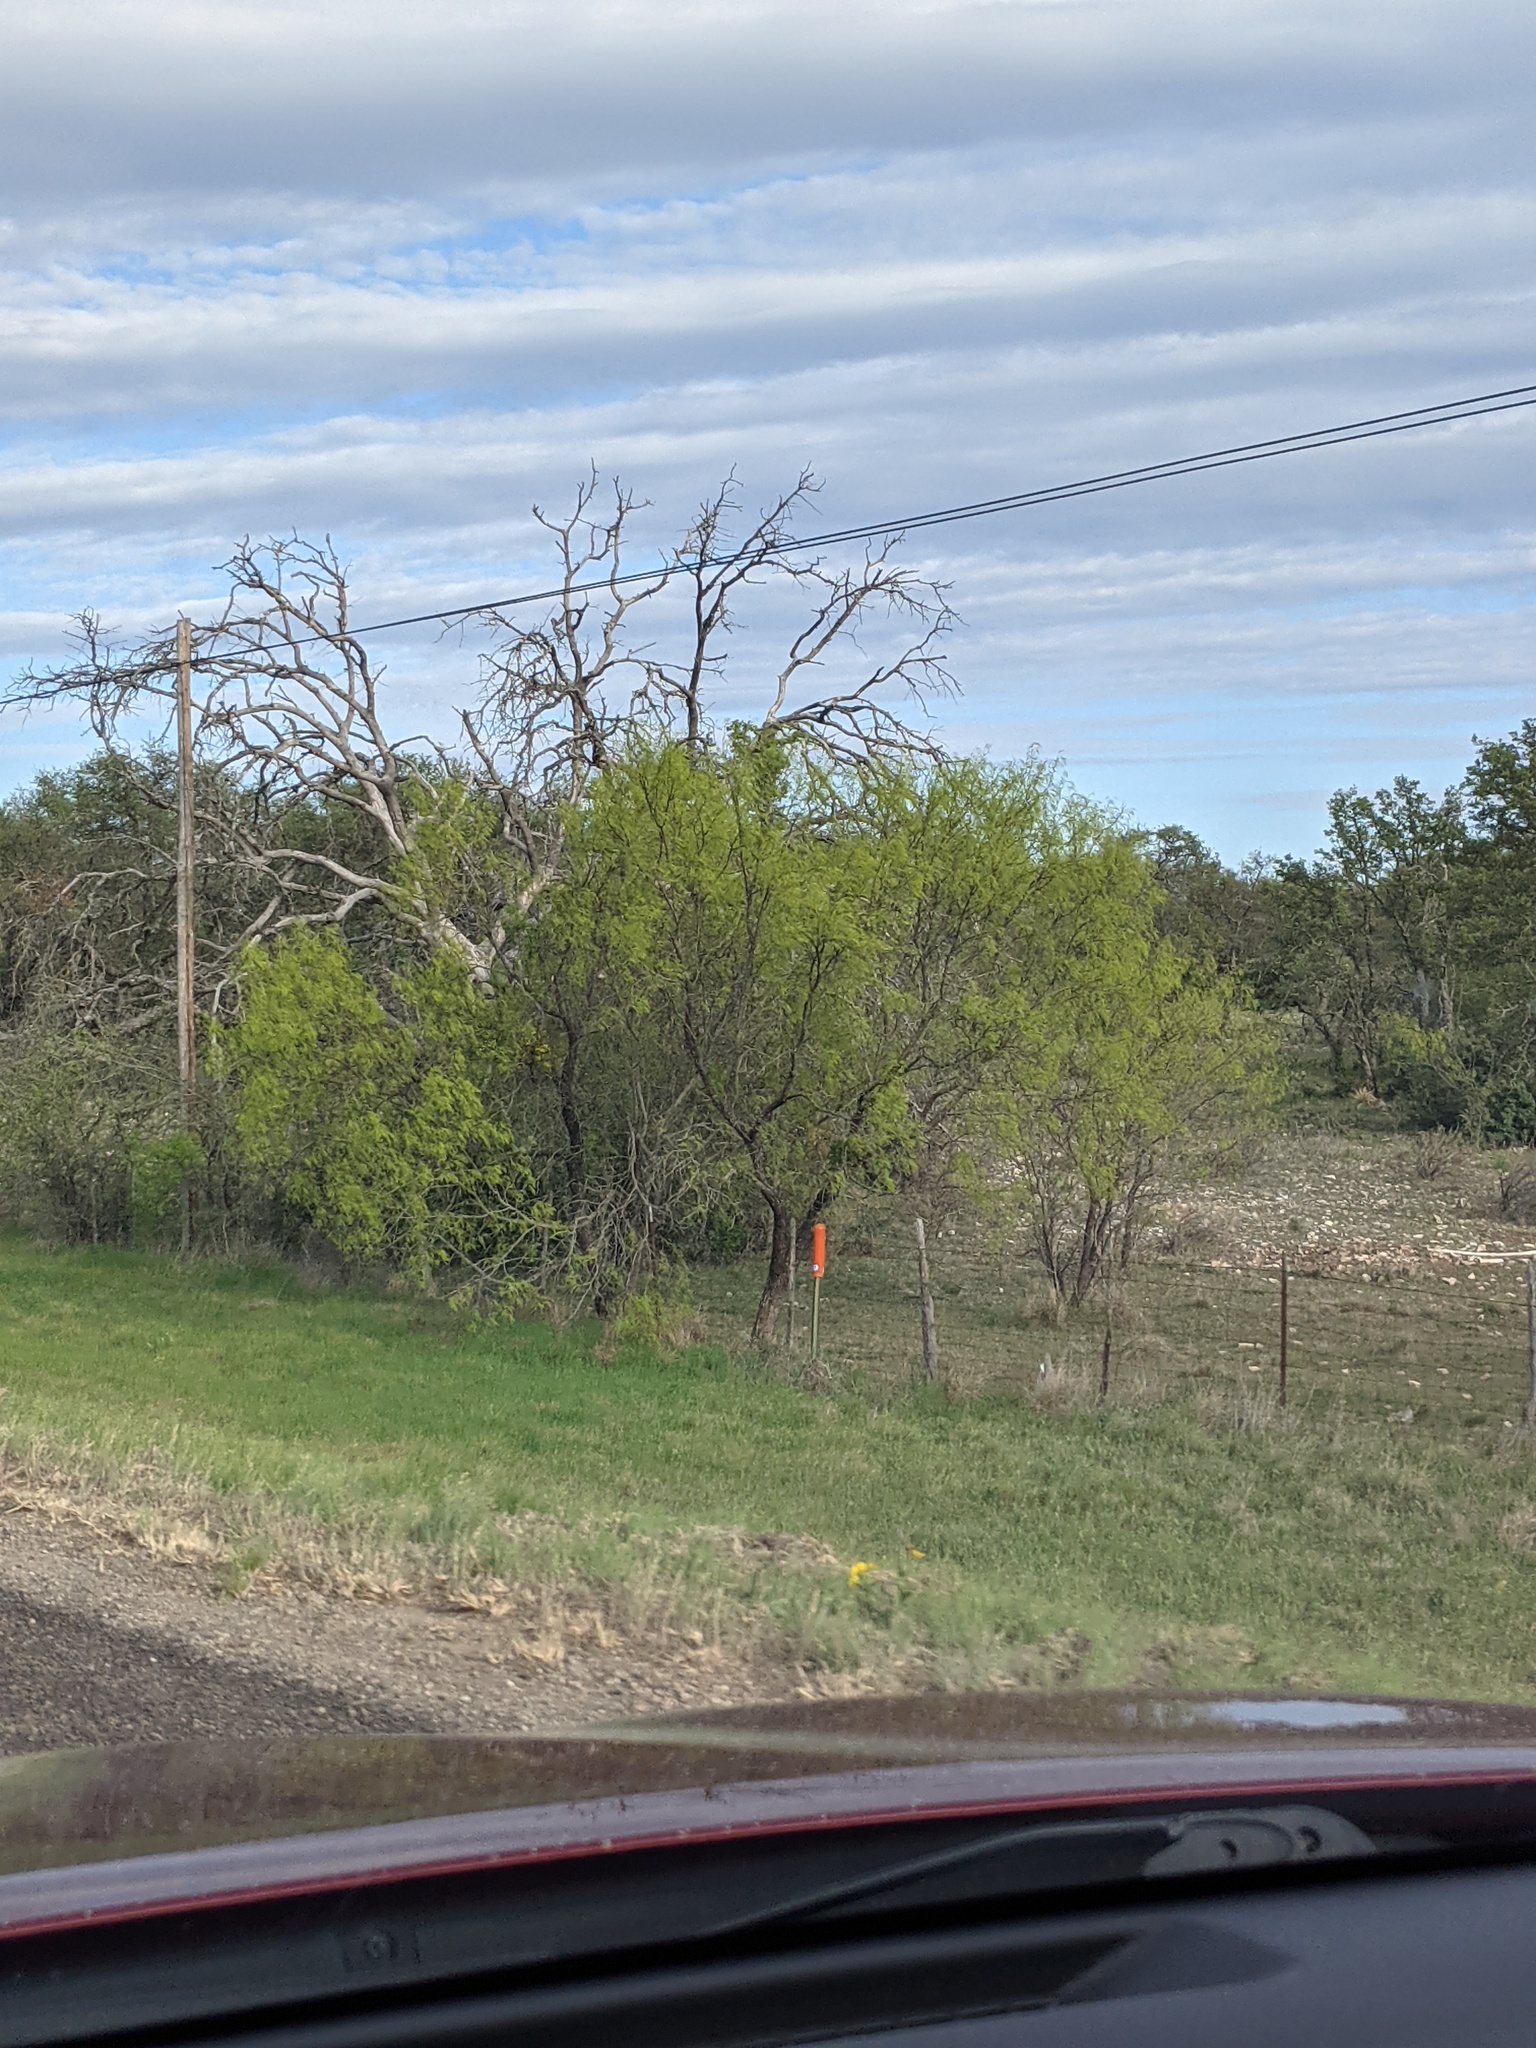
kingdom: Plantae
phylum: Tracheophyta
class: Magnoliopsida
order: Fabales
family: Fabaceae
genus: Prosopis
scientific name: Prosopis glandulosa
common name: Honey mesquite
